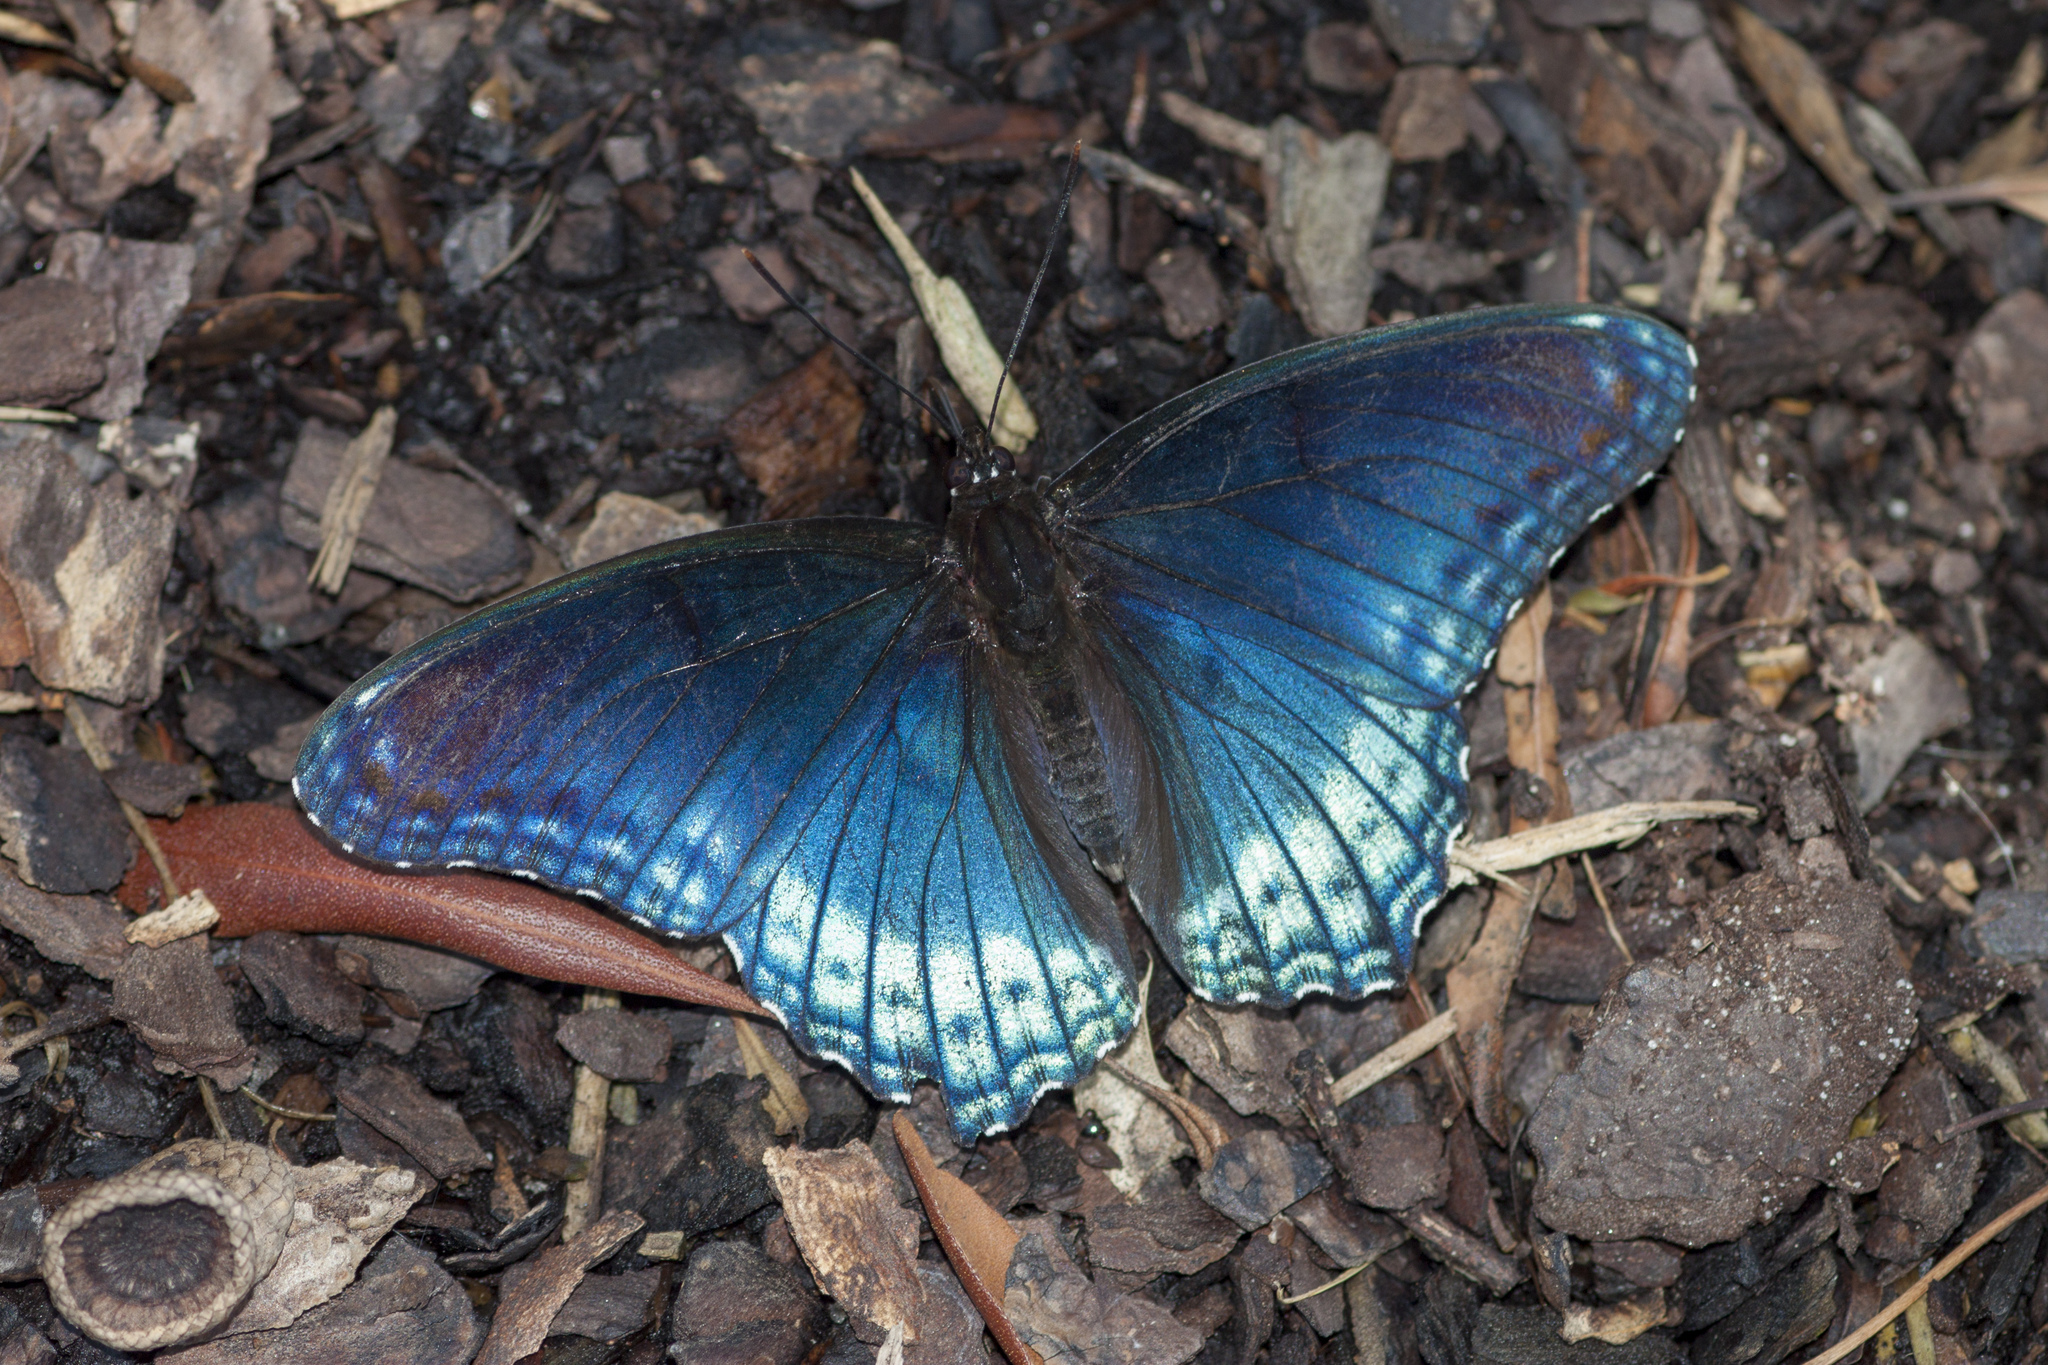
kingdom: Animalia
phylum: Arthropoda
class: Insecta
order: Lepidoptera
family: Nymphalidae
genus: Limenitis
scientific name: Limenitis arthemis
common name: Red-spotted admiral
